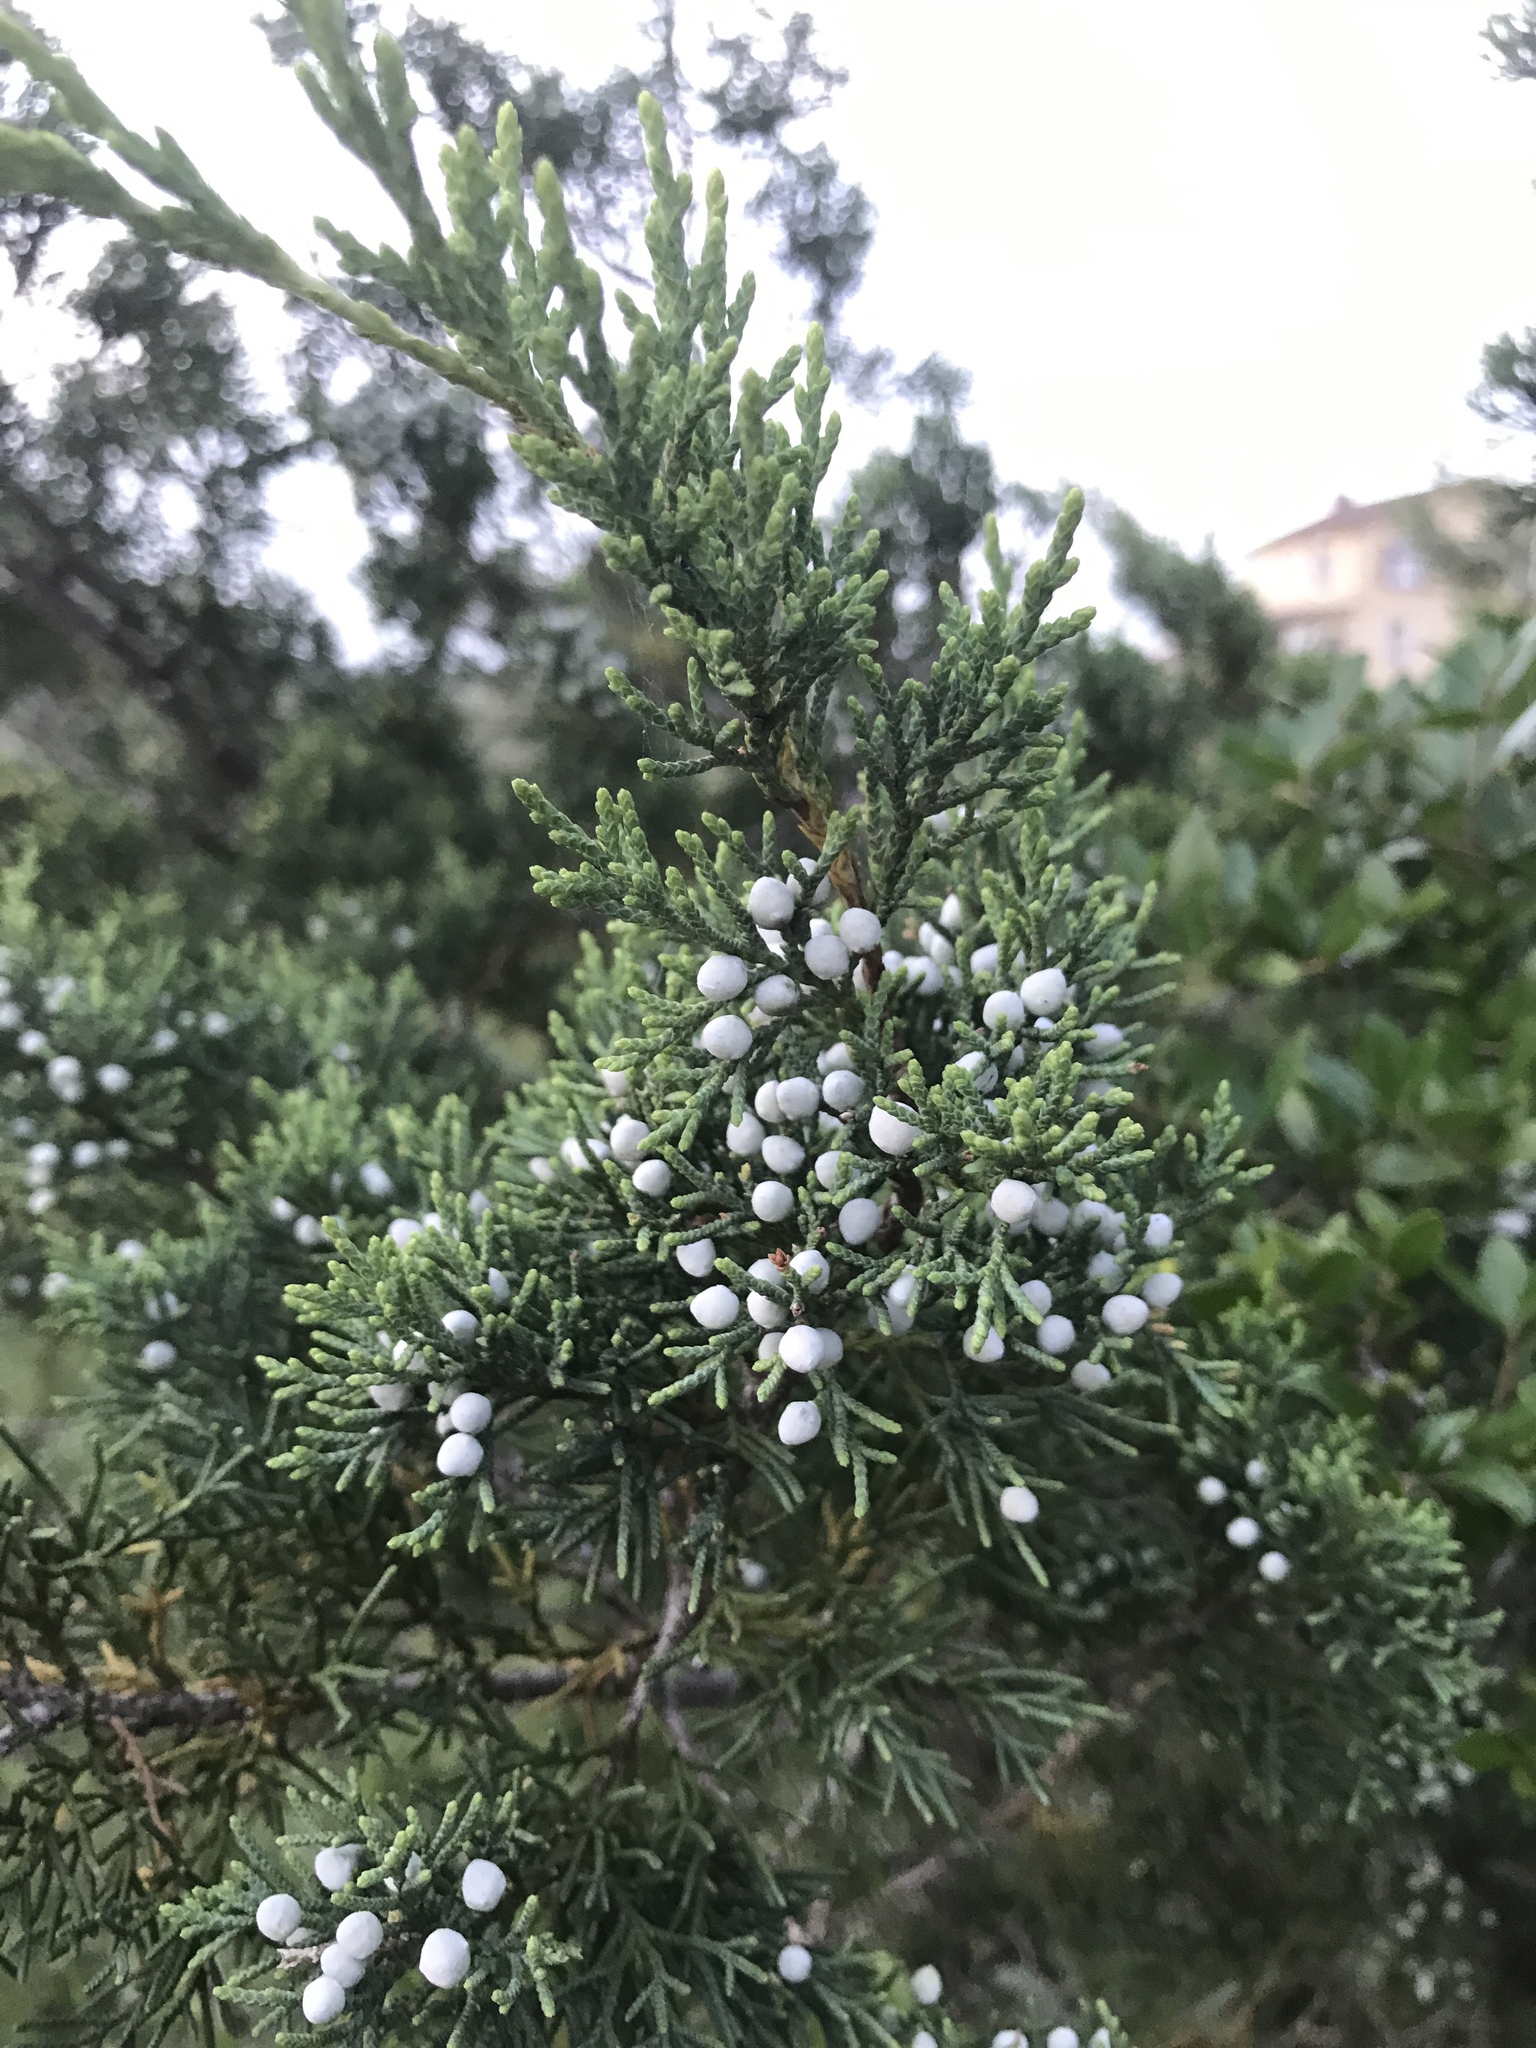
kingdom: Plantae
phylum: Tracheophyta
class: Pinopsida
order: Pinales
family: Cupressaceae
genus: Juniperus
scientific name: Juniperus virginiana
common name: Red juniper
